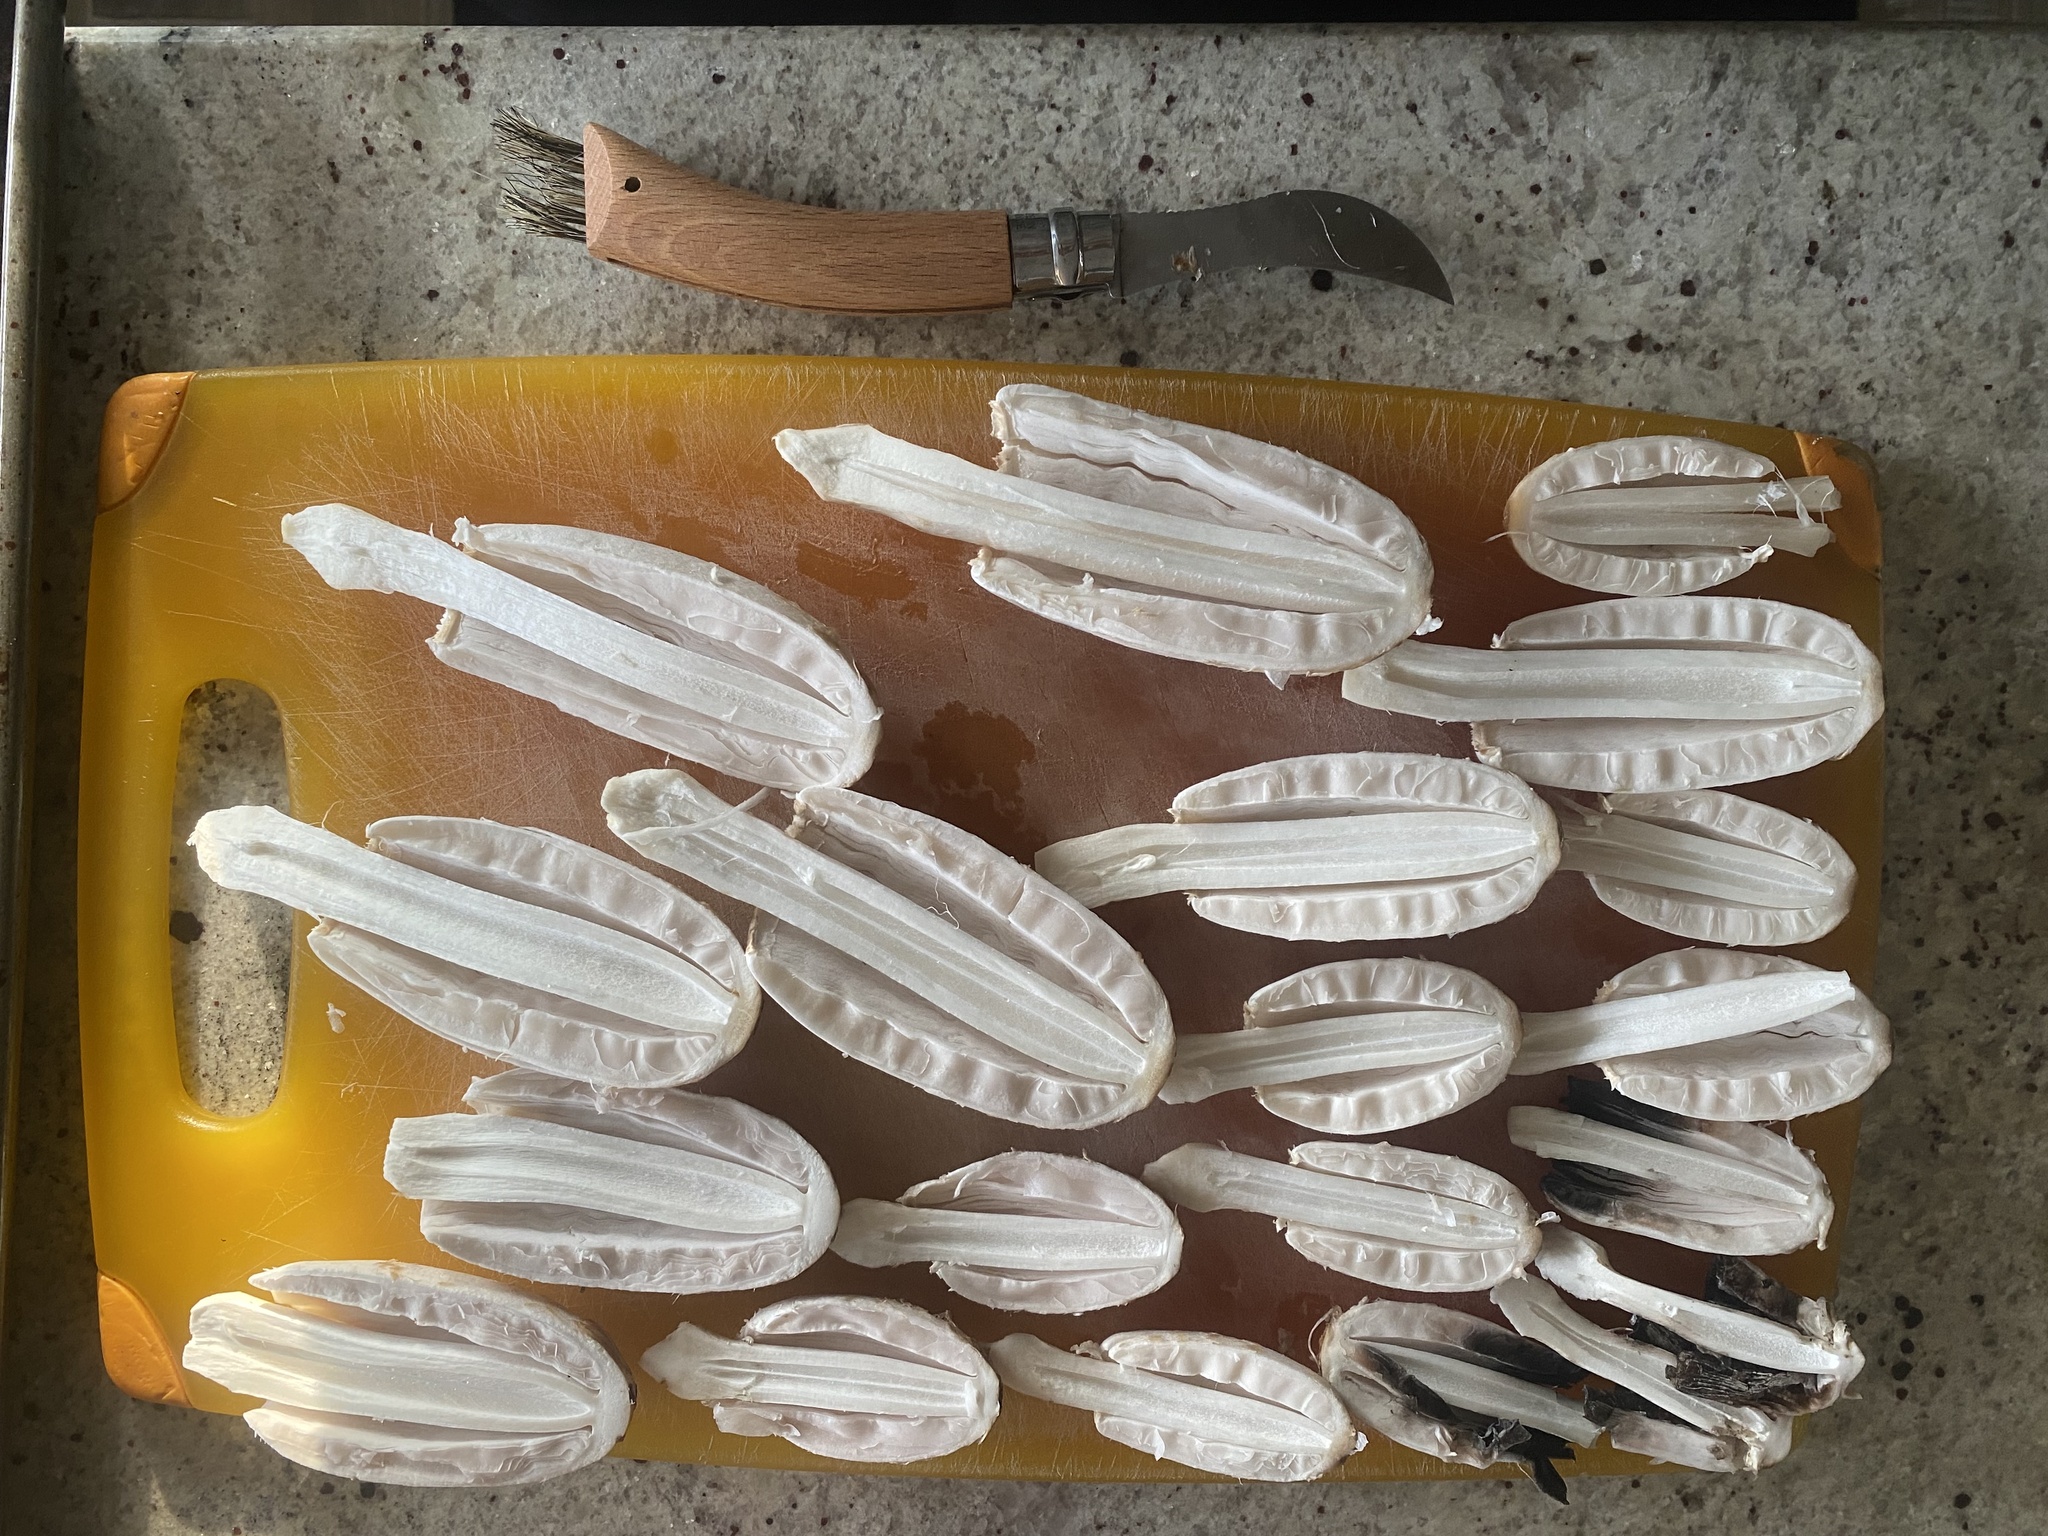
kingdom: Fungi
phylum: Basidiomycota
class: Agaricomycetes
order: Agaricales
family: Agaricaceae
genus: Coprinus
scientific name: Coprinus comatus
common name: Lawyer's wig
